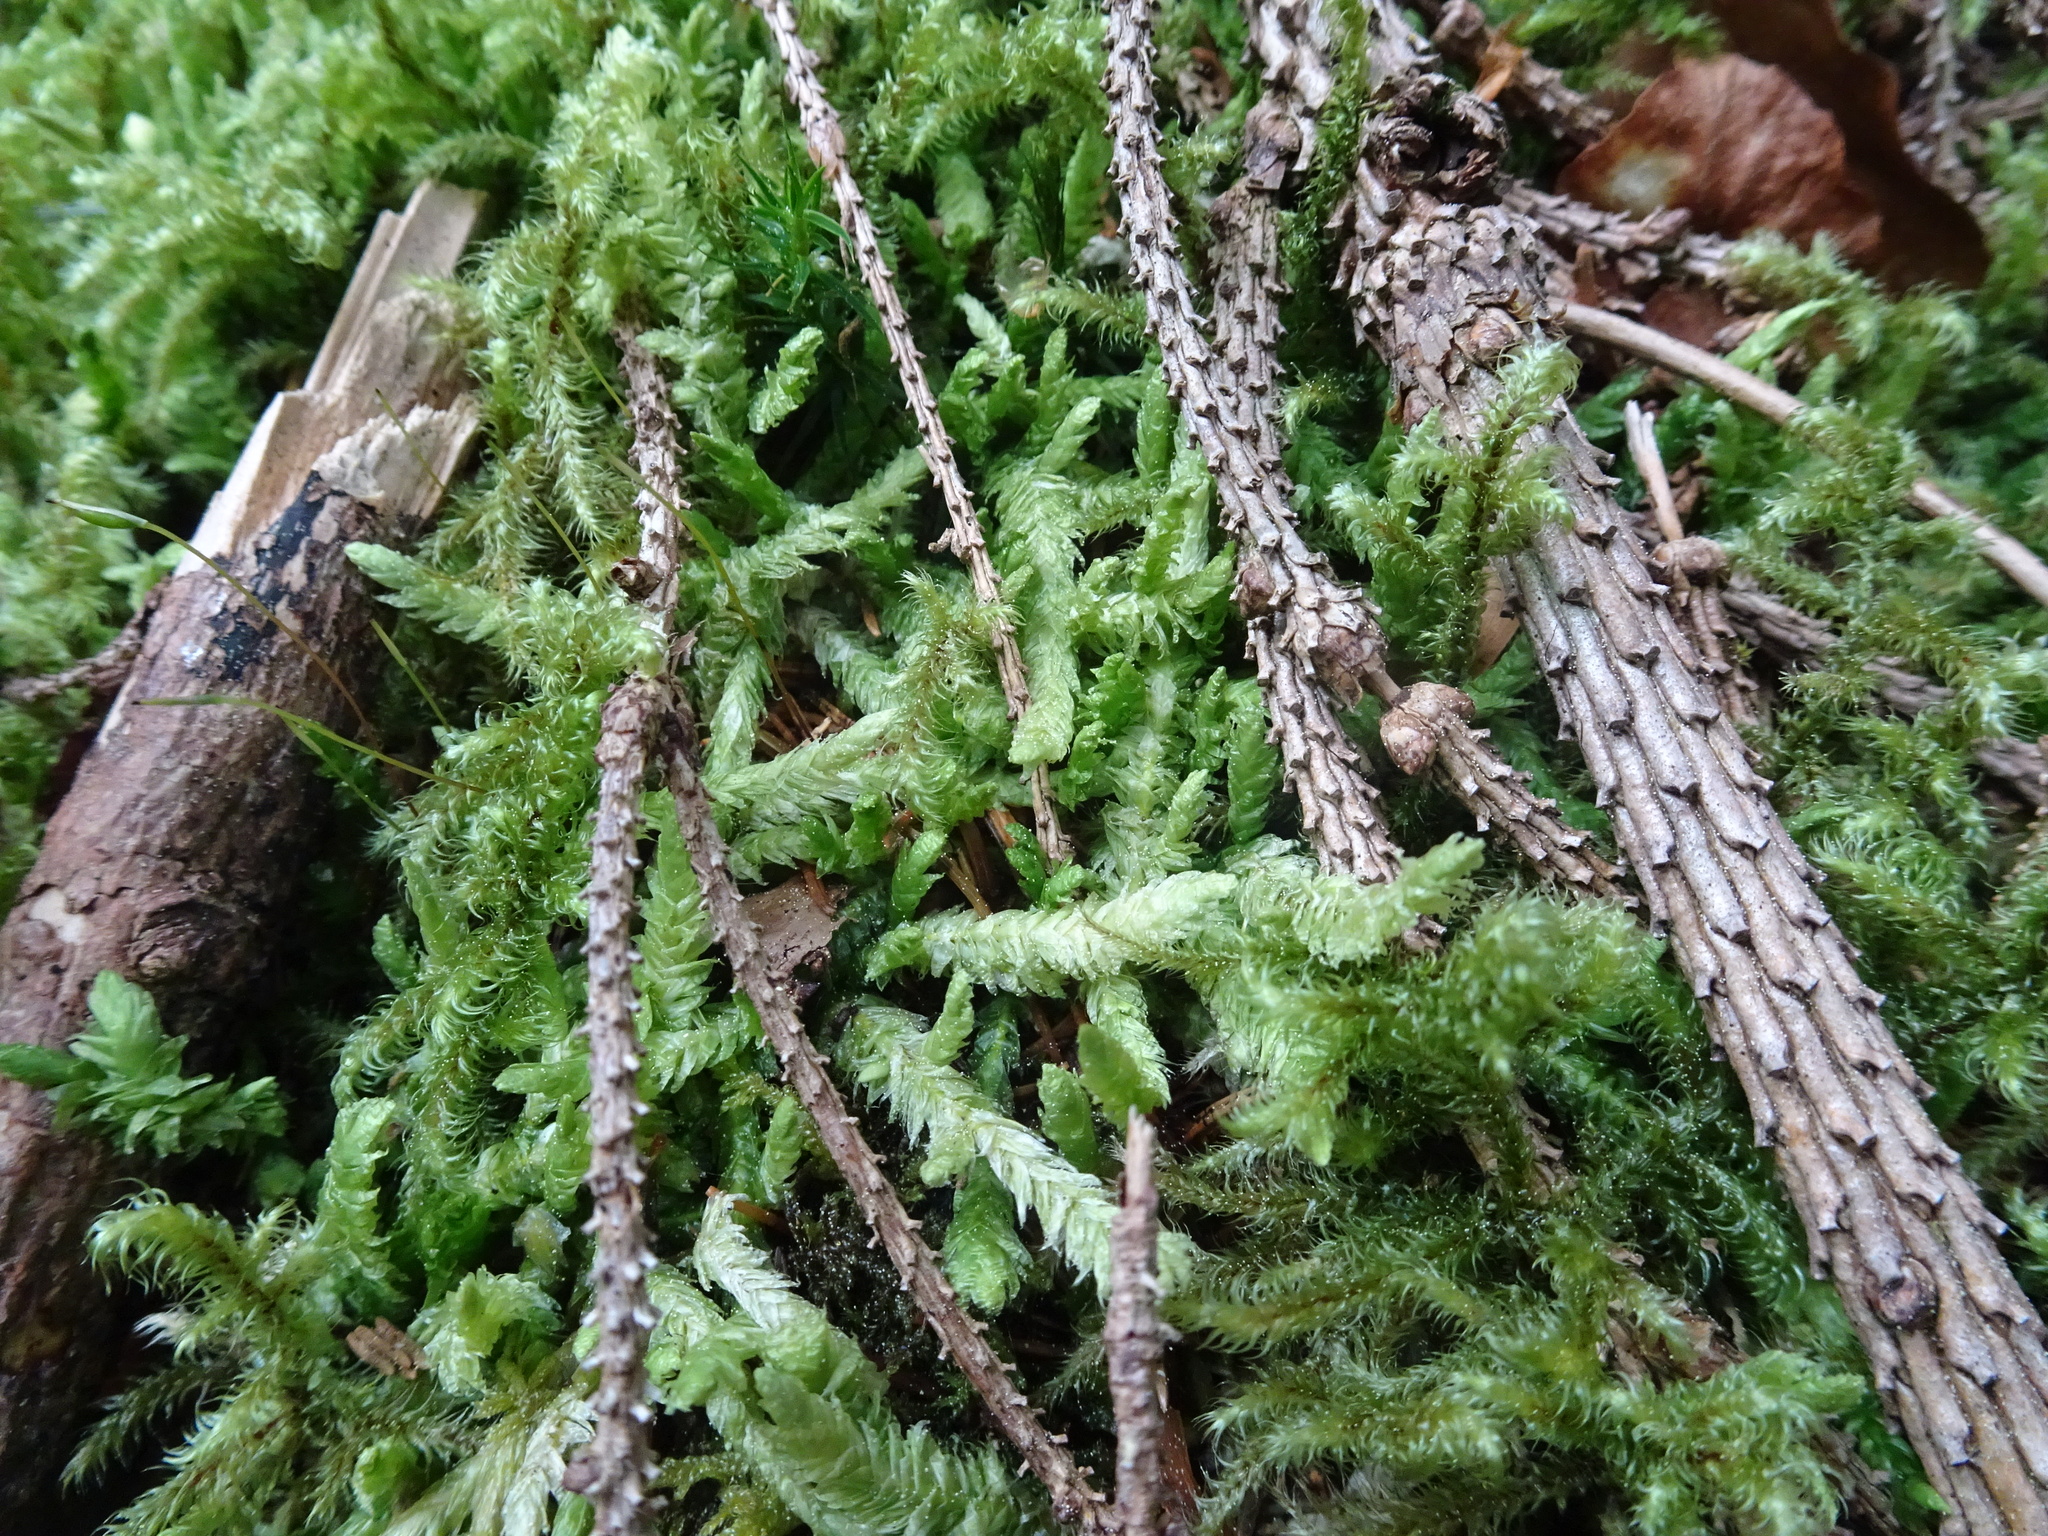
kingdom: Plantae
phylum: Bryophyta
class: Bryopsida
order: Hypnales
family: Plagiotheciaceae
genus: Plagiothecium
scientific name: Plagiothecium undulatum
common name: Waved silk-moss
